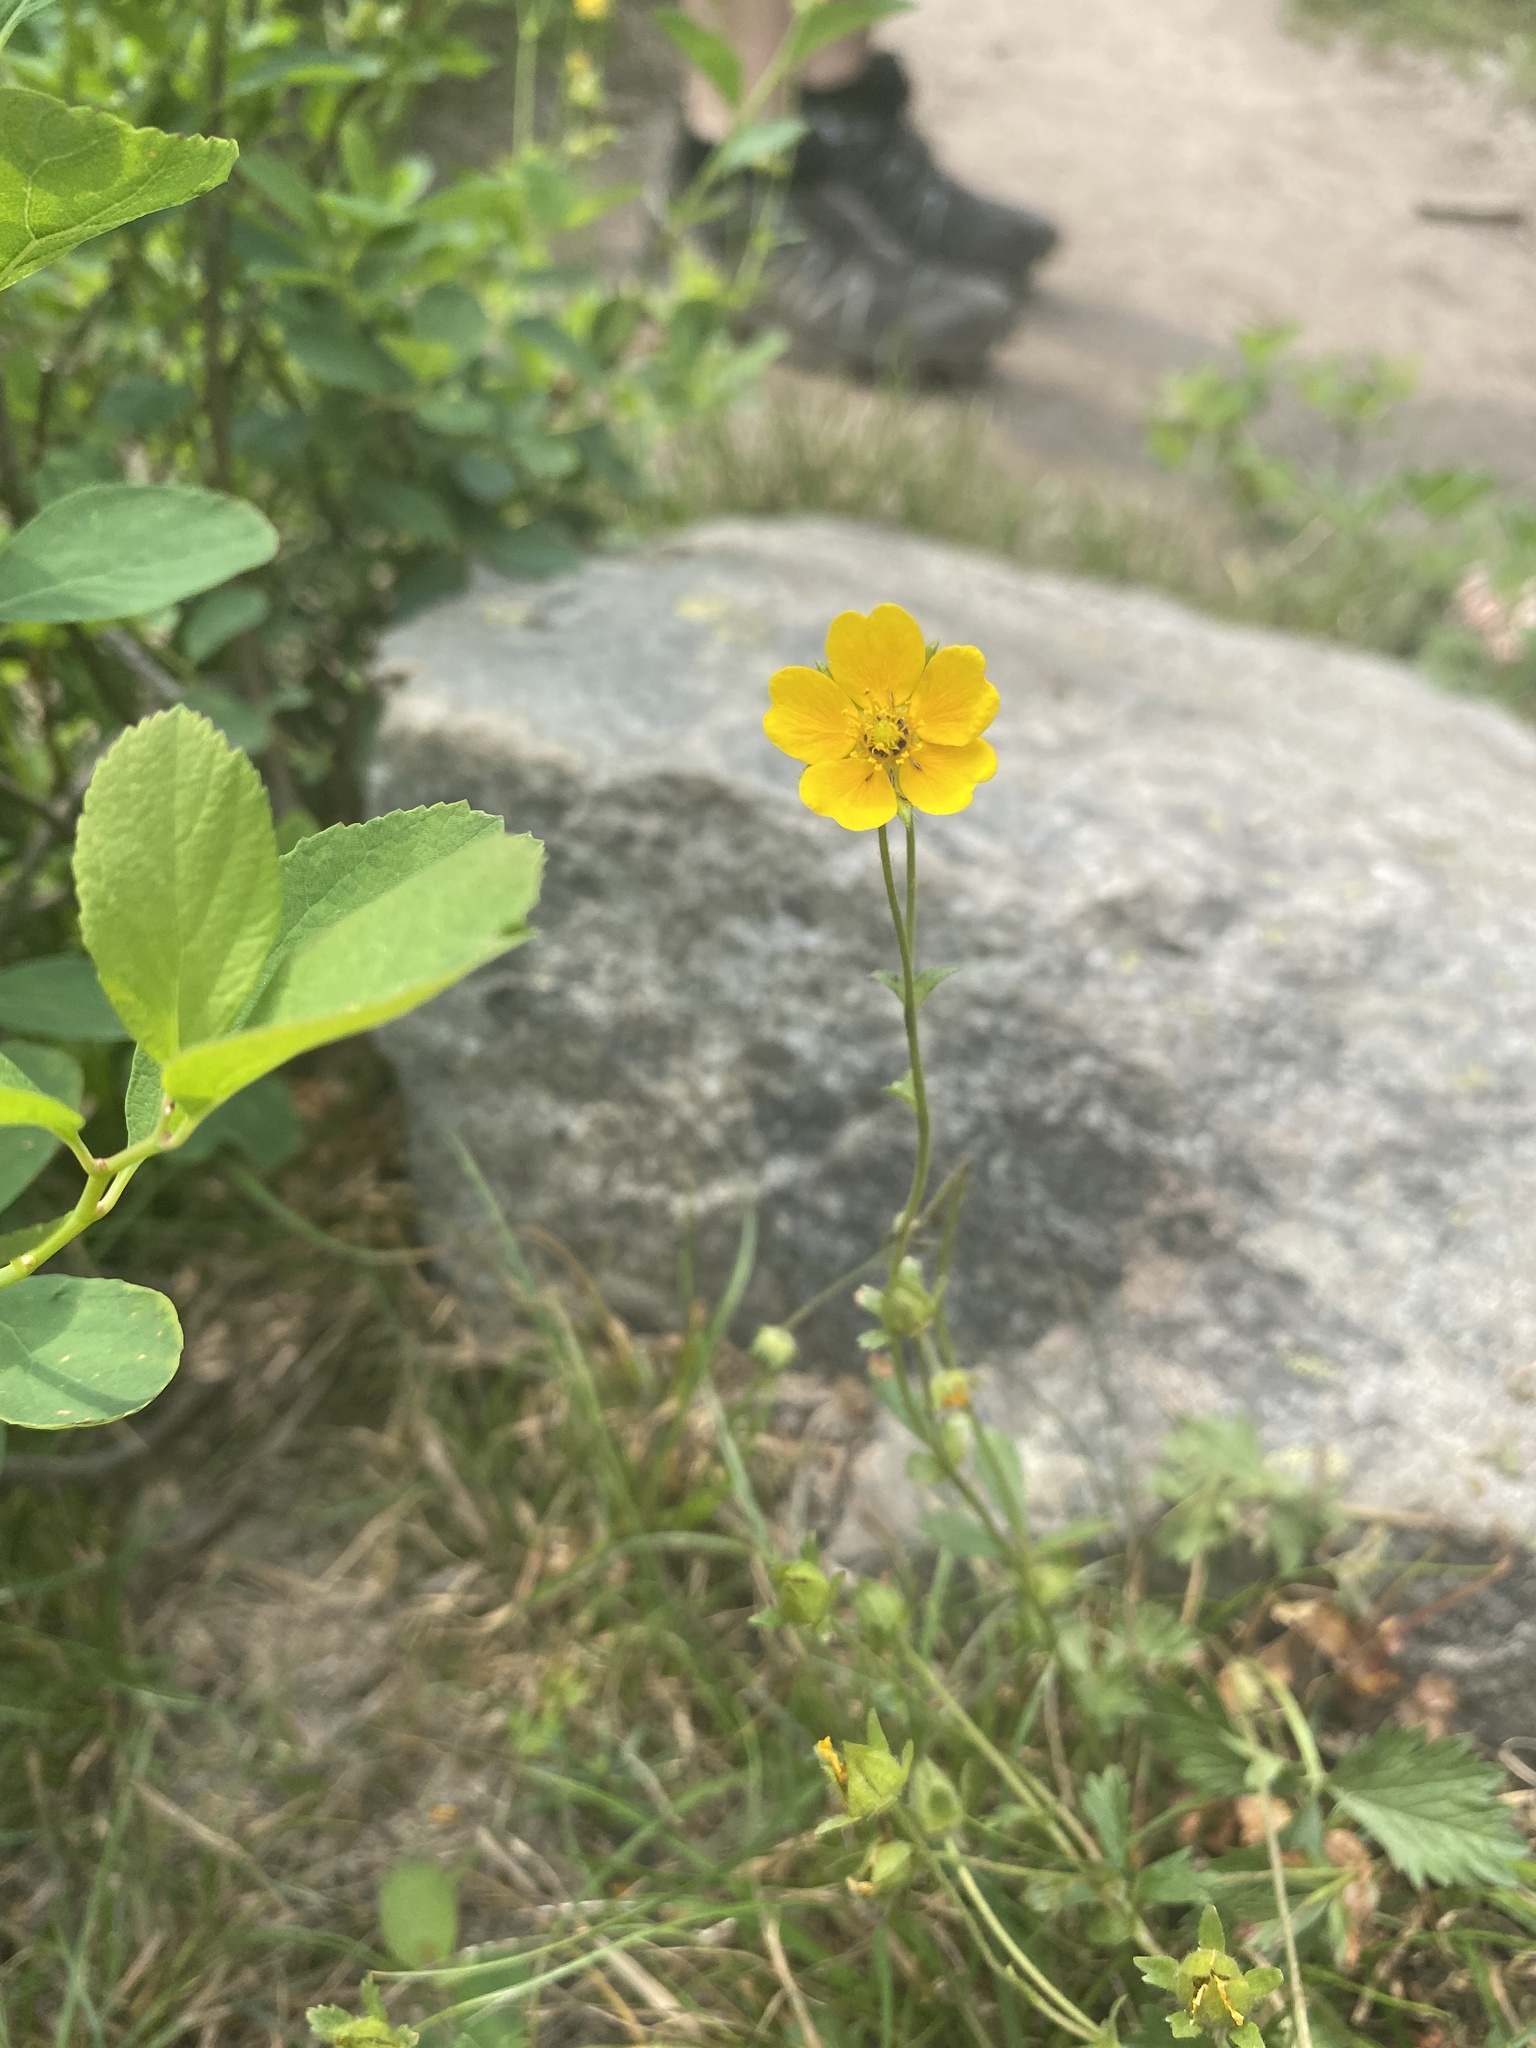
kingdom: Plantae
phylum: Tracheophyta
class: Magnoliopsida
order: Ranunculales
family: Ranunculaceae
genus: Ranunculus
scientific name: Ranunculus acris
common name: Meadow buttercup
